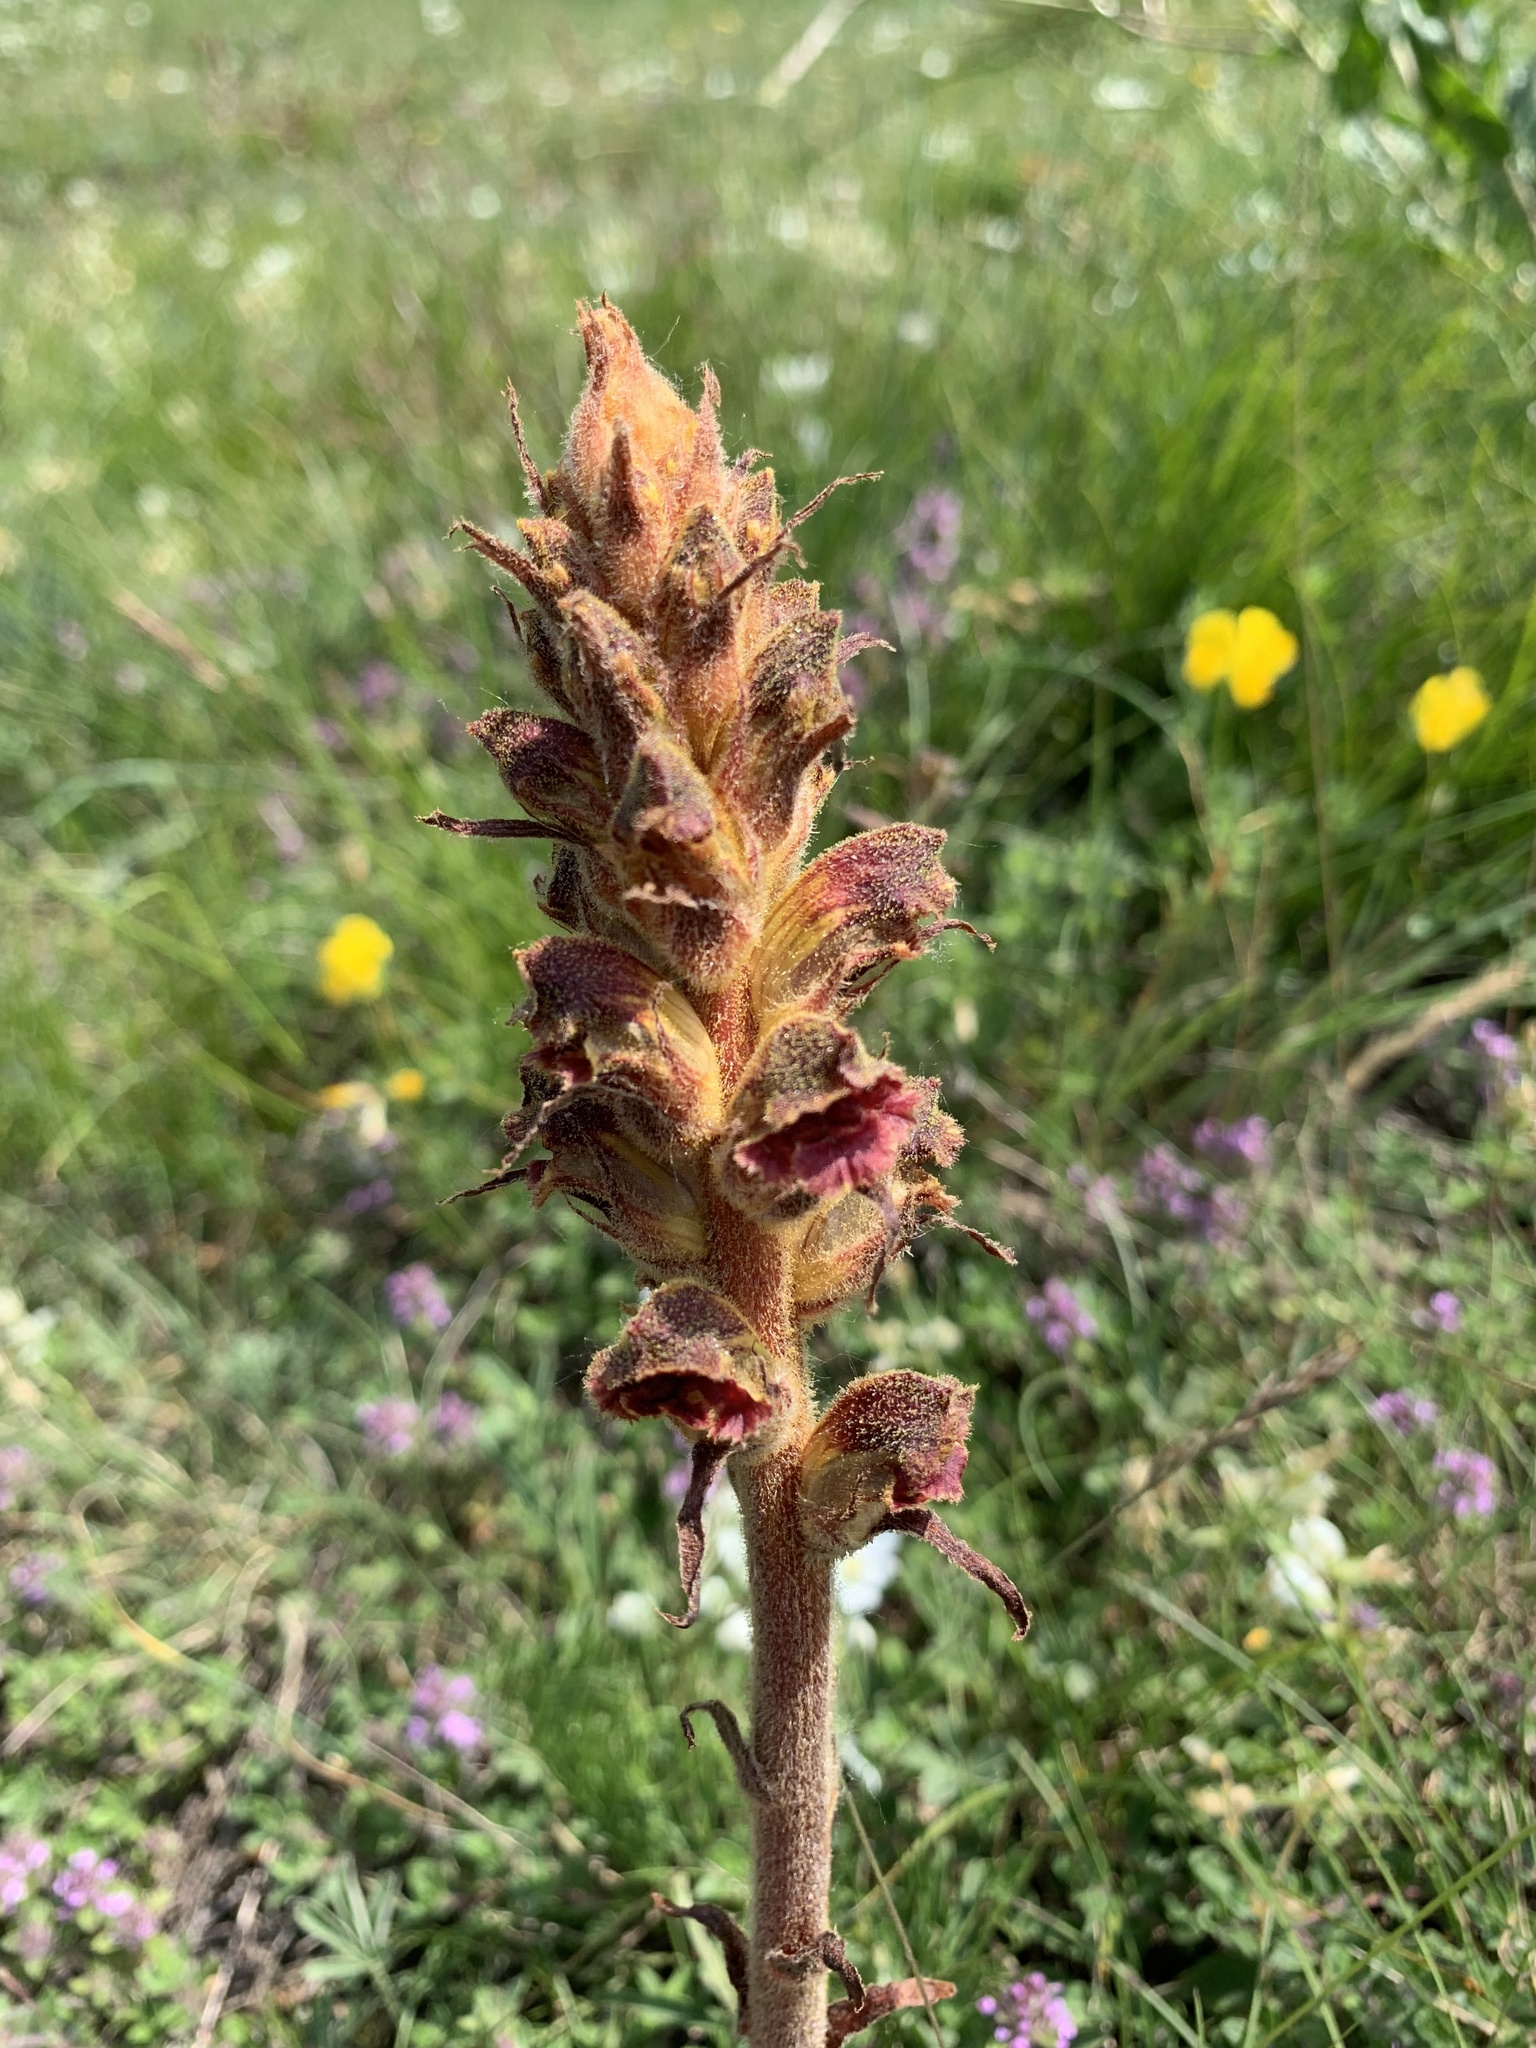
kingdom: Plantae
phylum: Tracheophyta
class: Magnoliopsida
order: Lamiales
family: Orobanchaceae
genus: Orobanche
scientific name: Orobanche gracilis
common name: Slender broomrape
